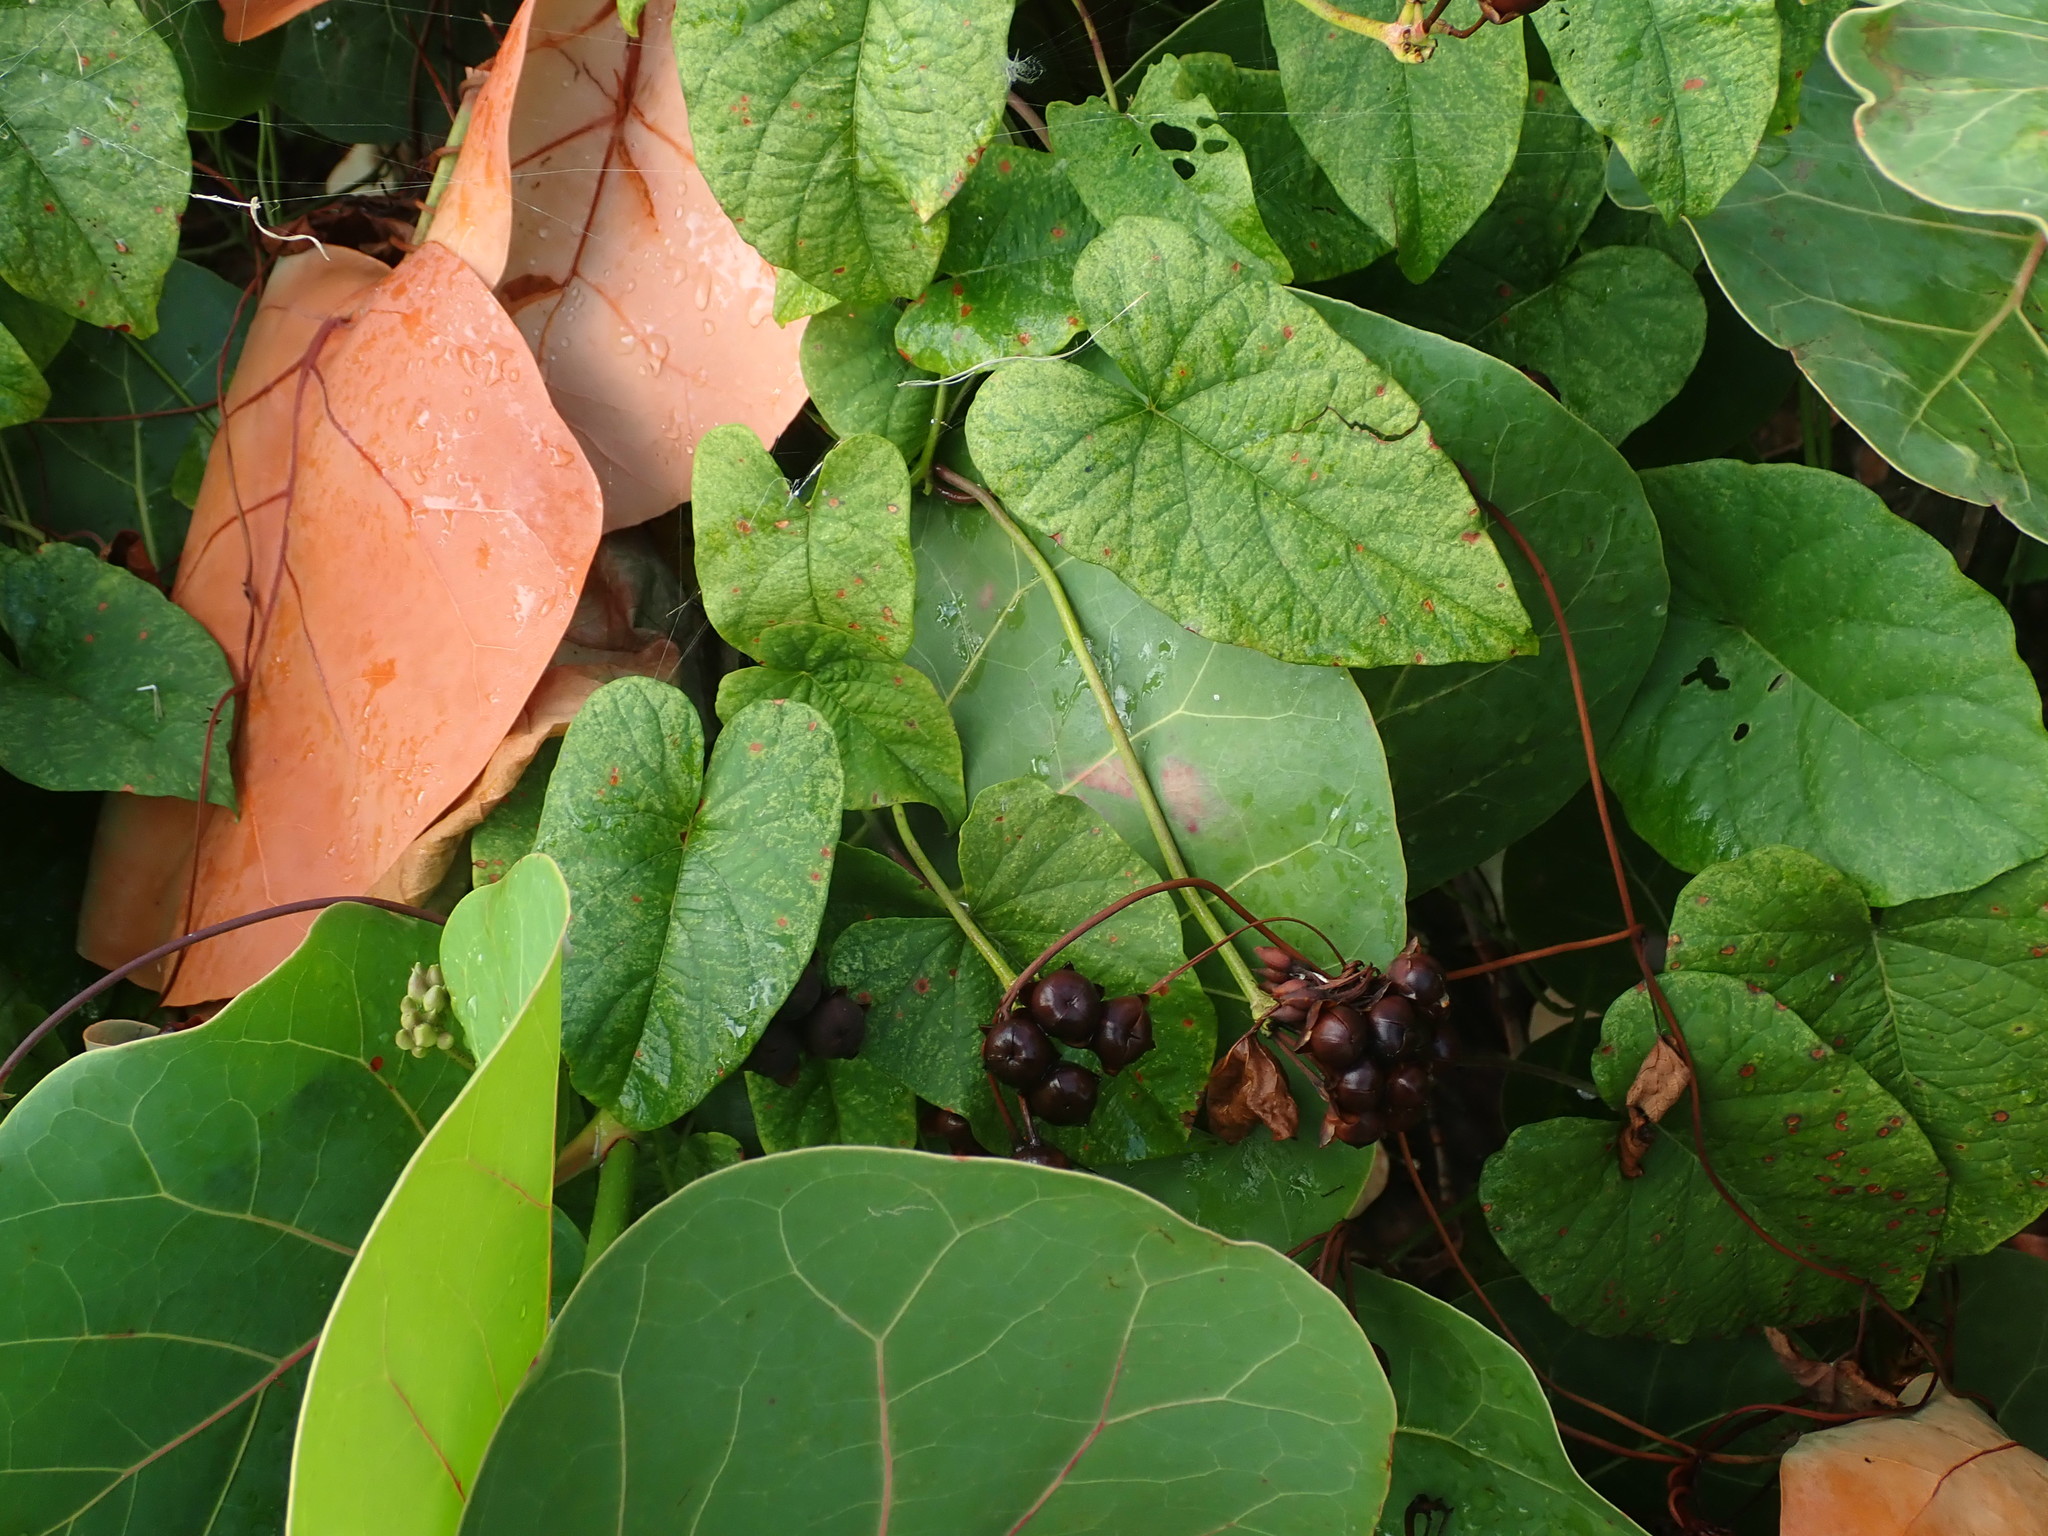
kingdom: Plantae
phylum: Tracheophyta
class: Magnoliopsida
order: Solanales
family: Convolvulaceae
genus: Camonea
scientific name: Camonea umbellata
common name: Hogvine
